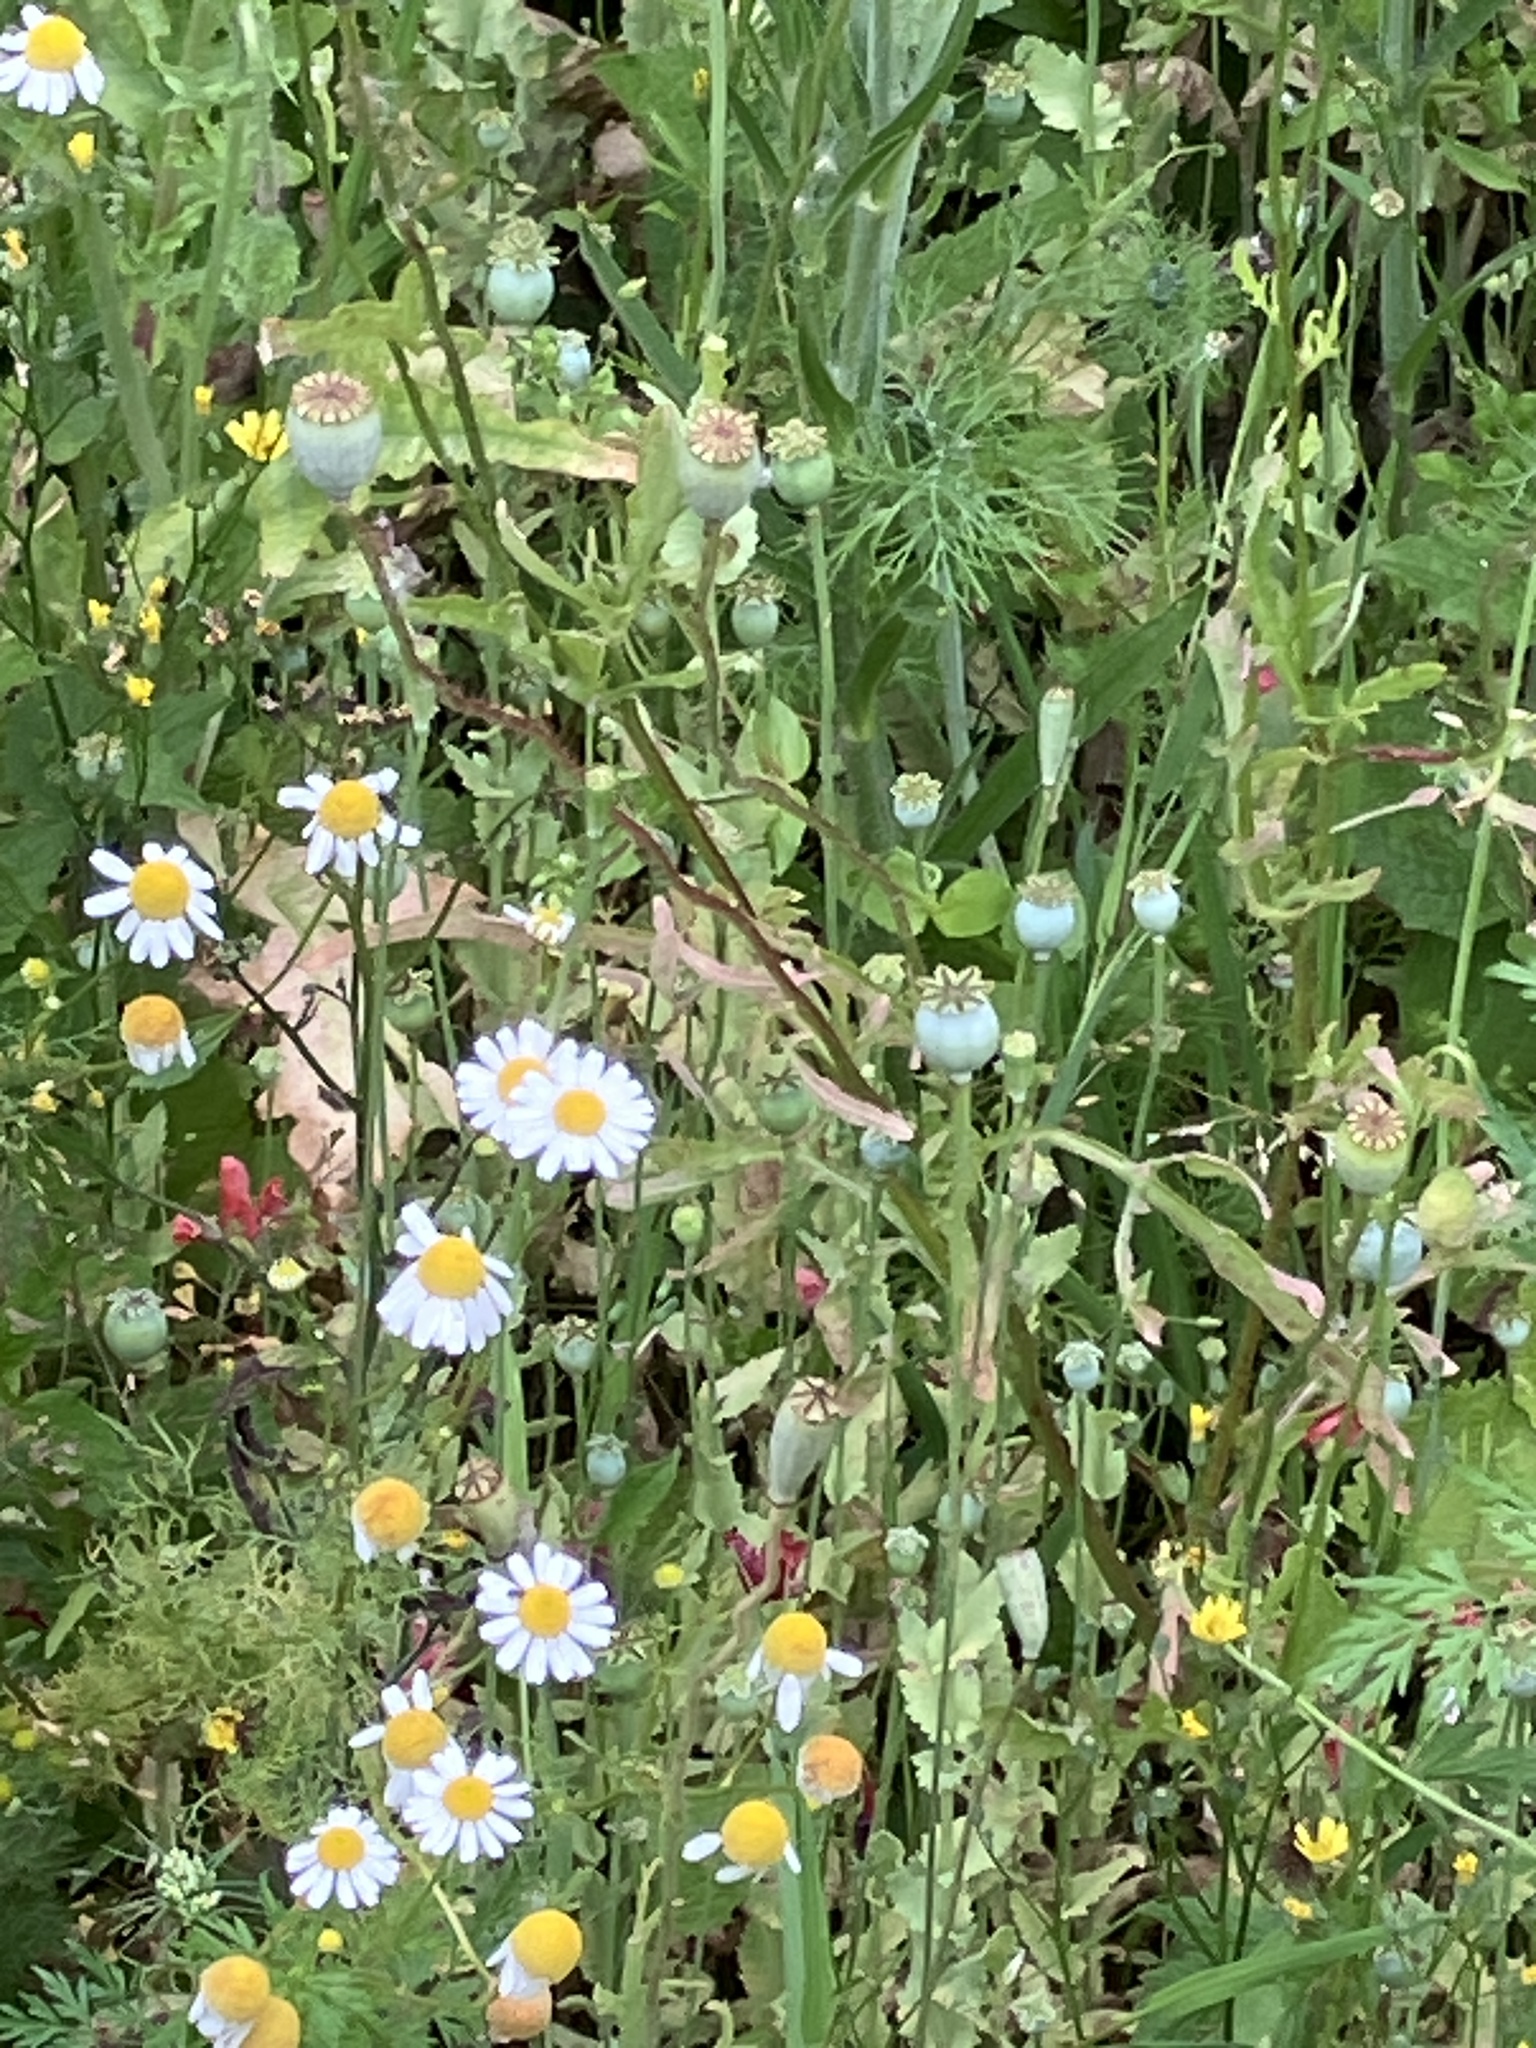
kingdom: Plantae
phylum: Tracheophyta
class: Magnoliopsida
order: Asterales
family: Asteraceae
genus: Tanacetum
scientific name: Tanacetum parthenium
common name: Feverfew
